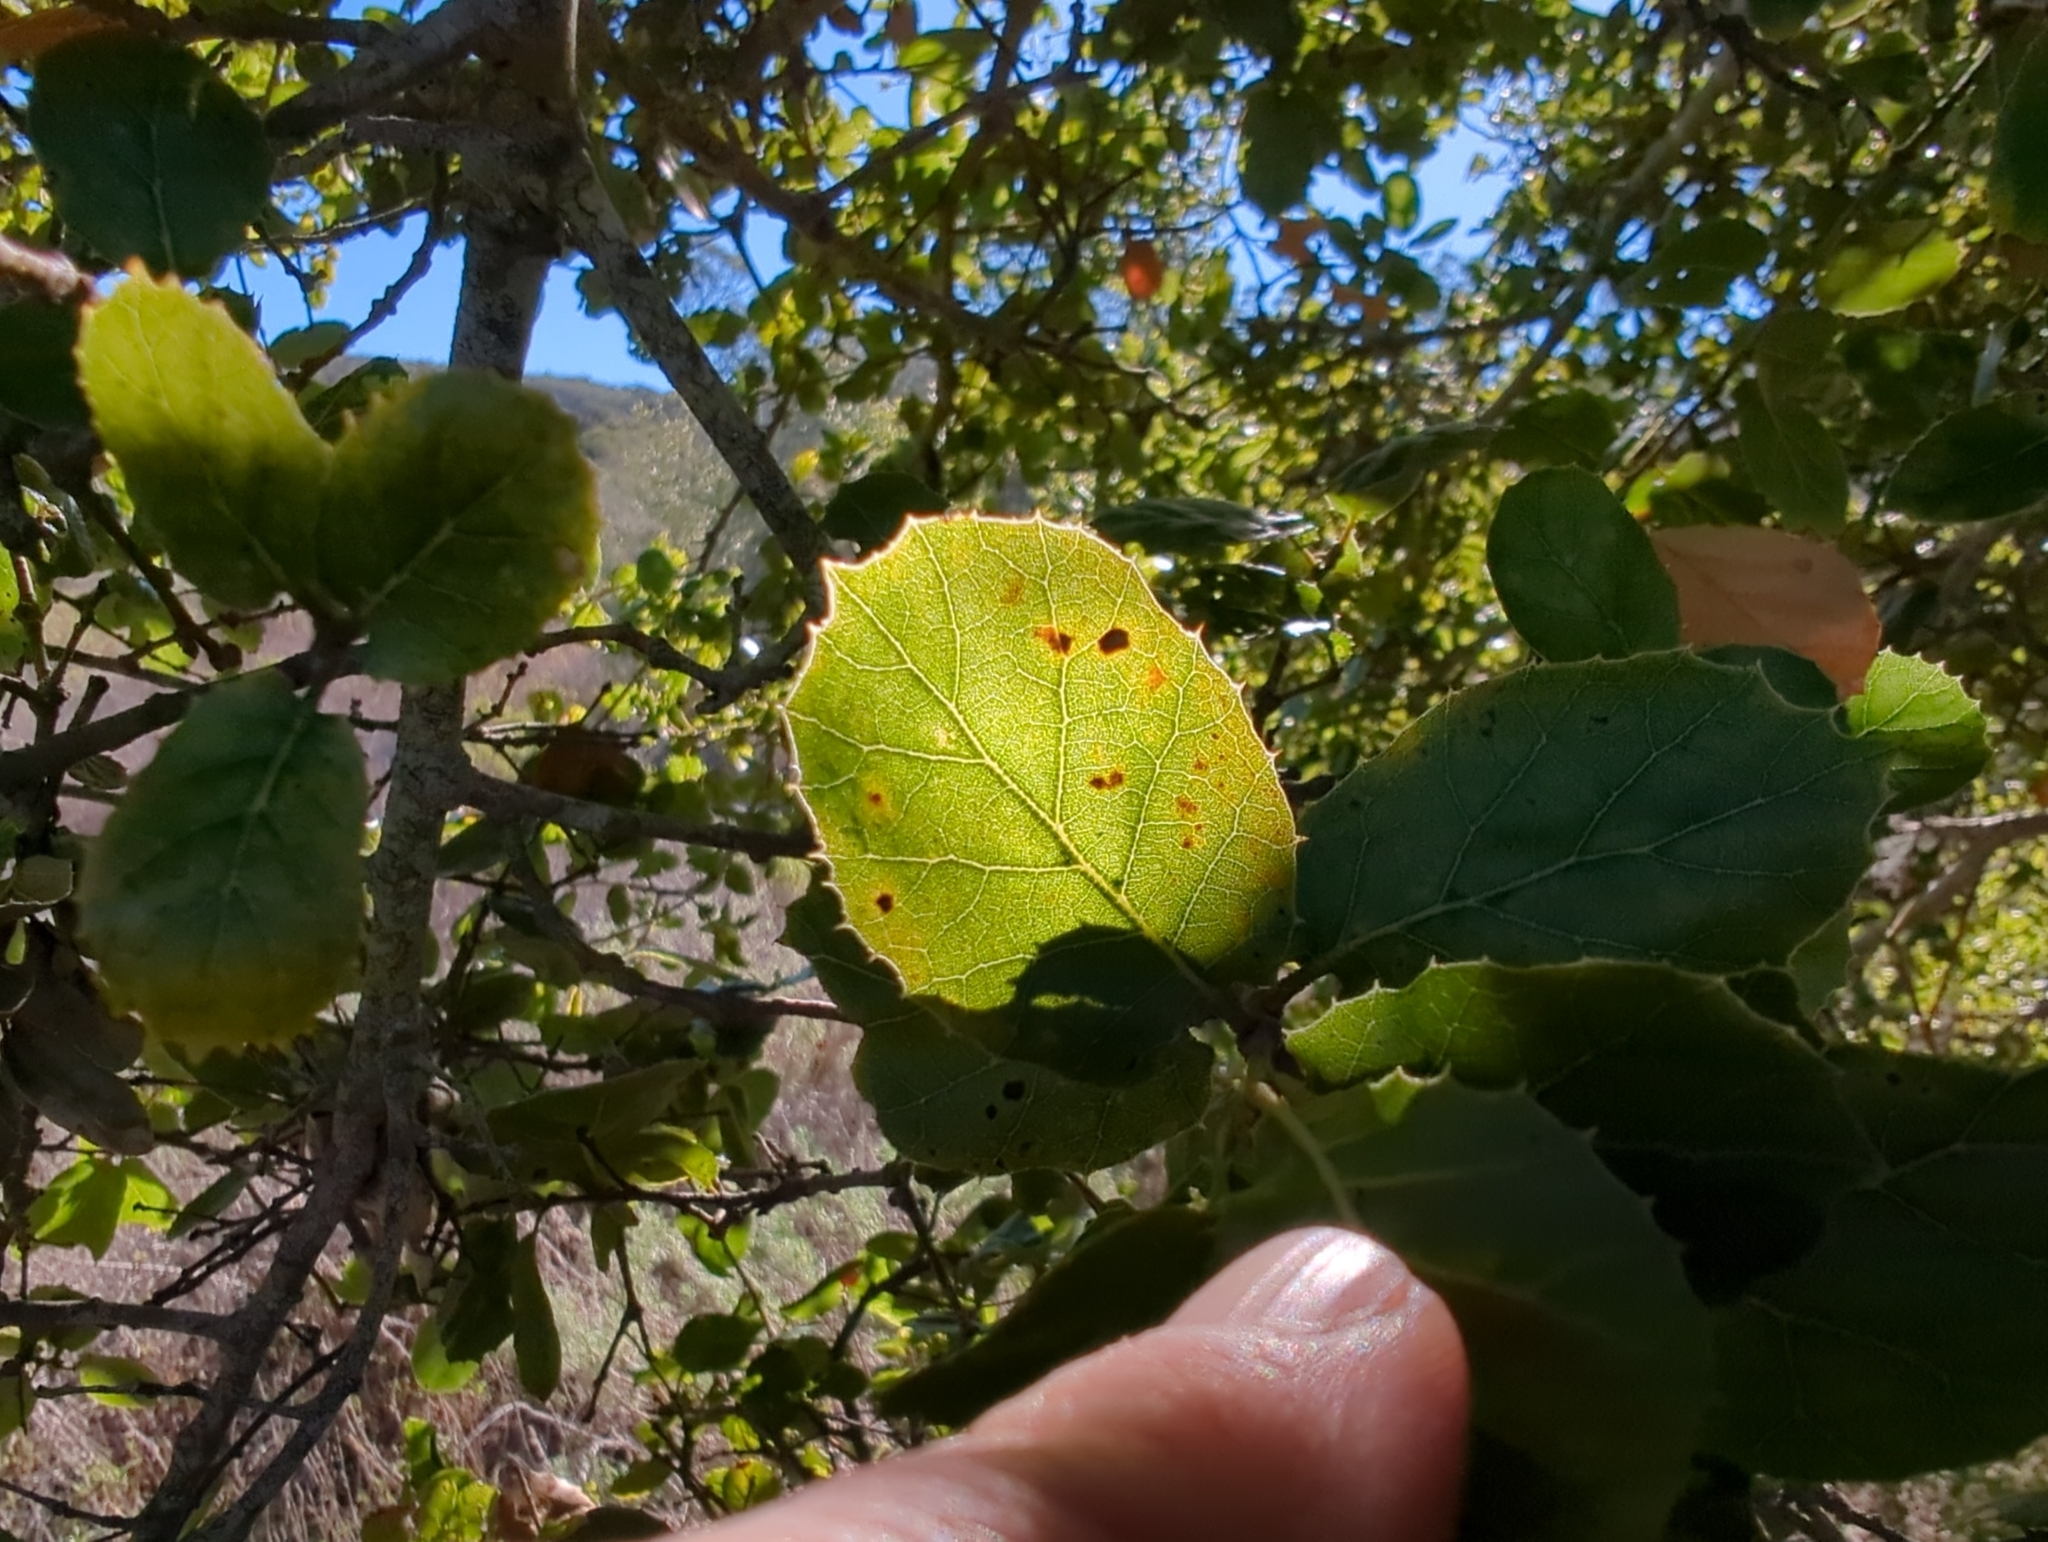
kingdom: Plantae
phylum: Tracheophyta
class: Magnoliopsida
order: Fagales
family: Fagaceae
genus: Quercus
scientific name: Quercus agrifolia
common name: California live oak
